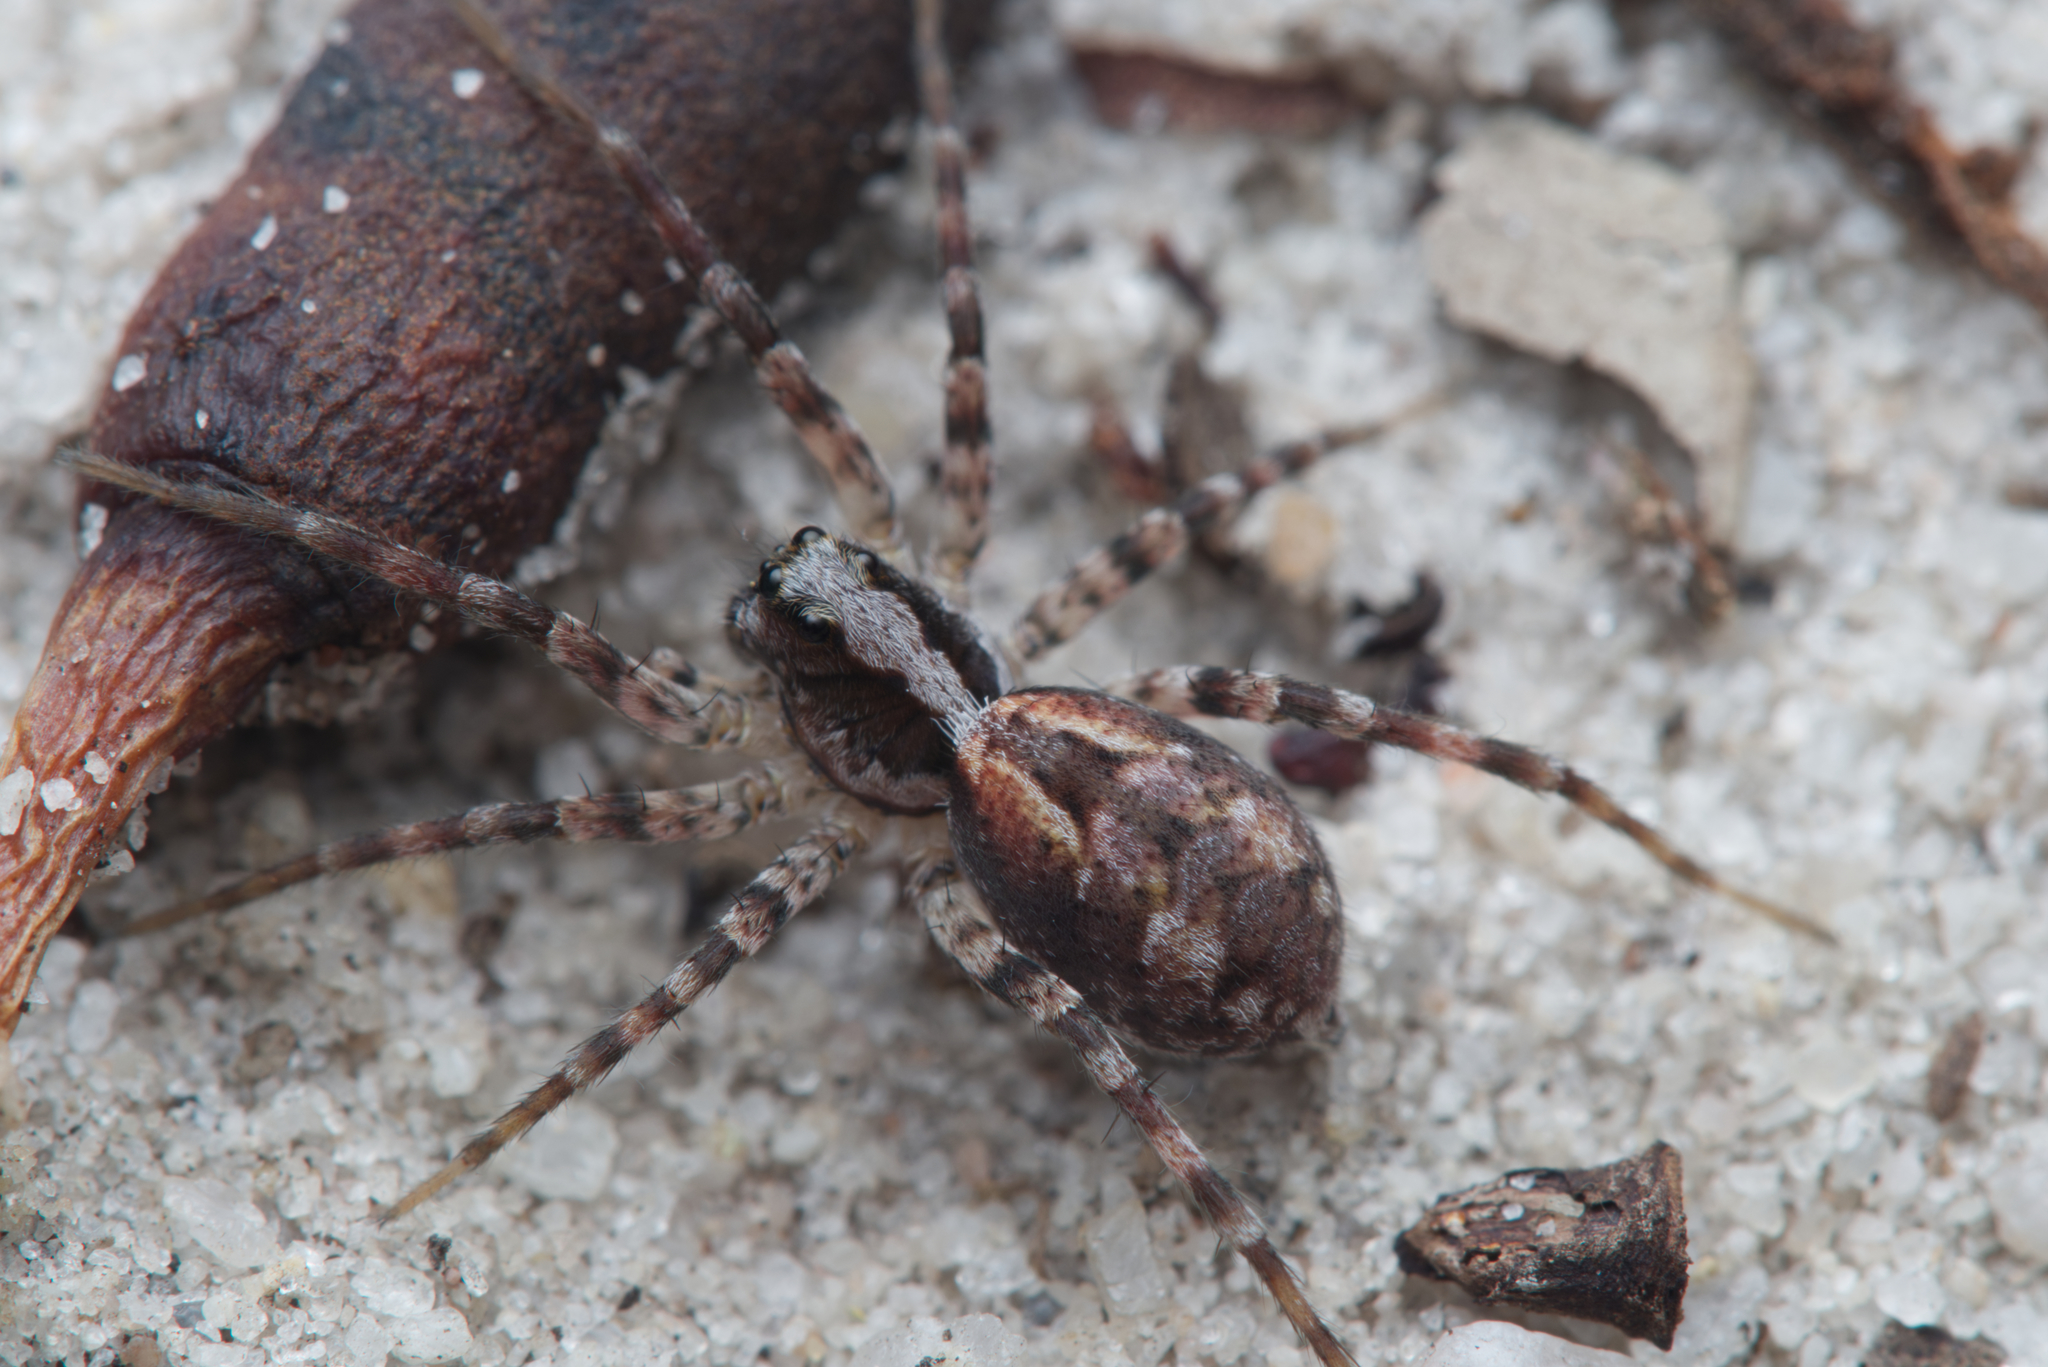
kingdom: Animalia
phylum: Arthropoda
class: Arachnida
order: Araneae
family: Lycosidae
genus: Venator
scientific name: Venator spenceri
